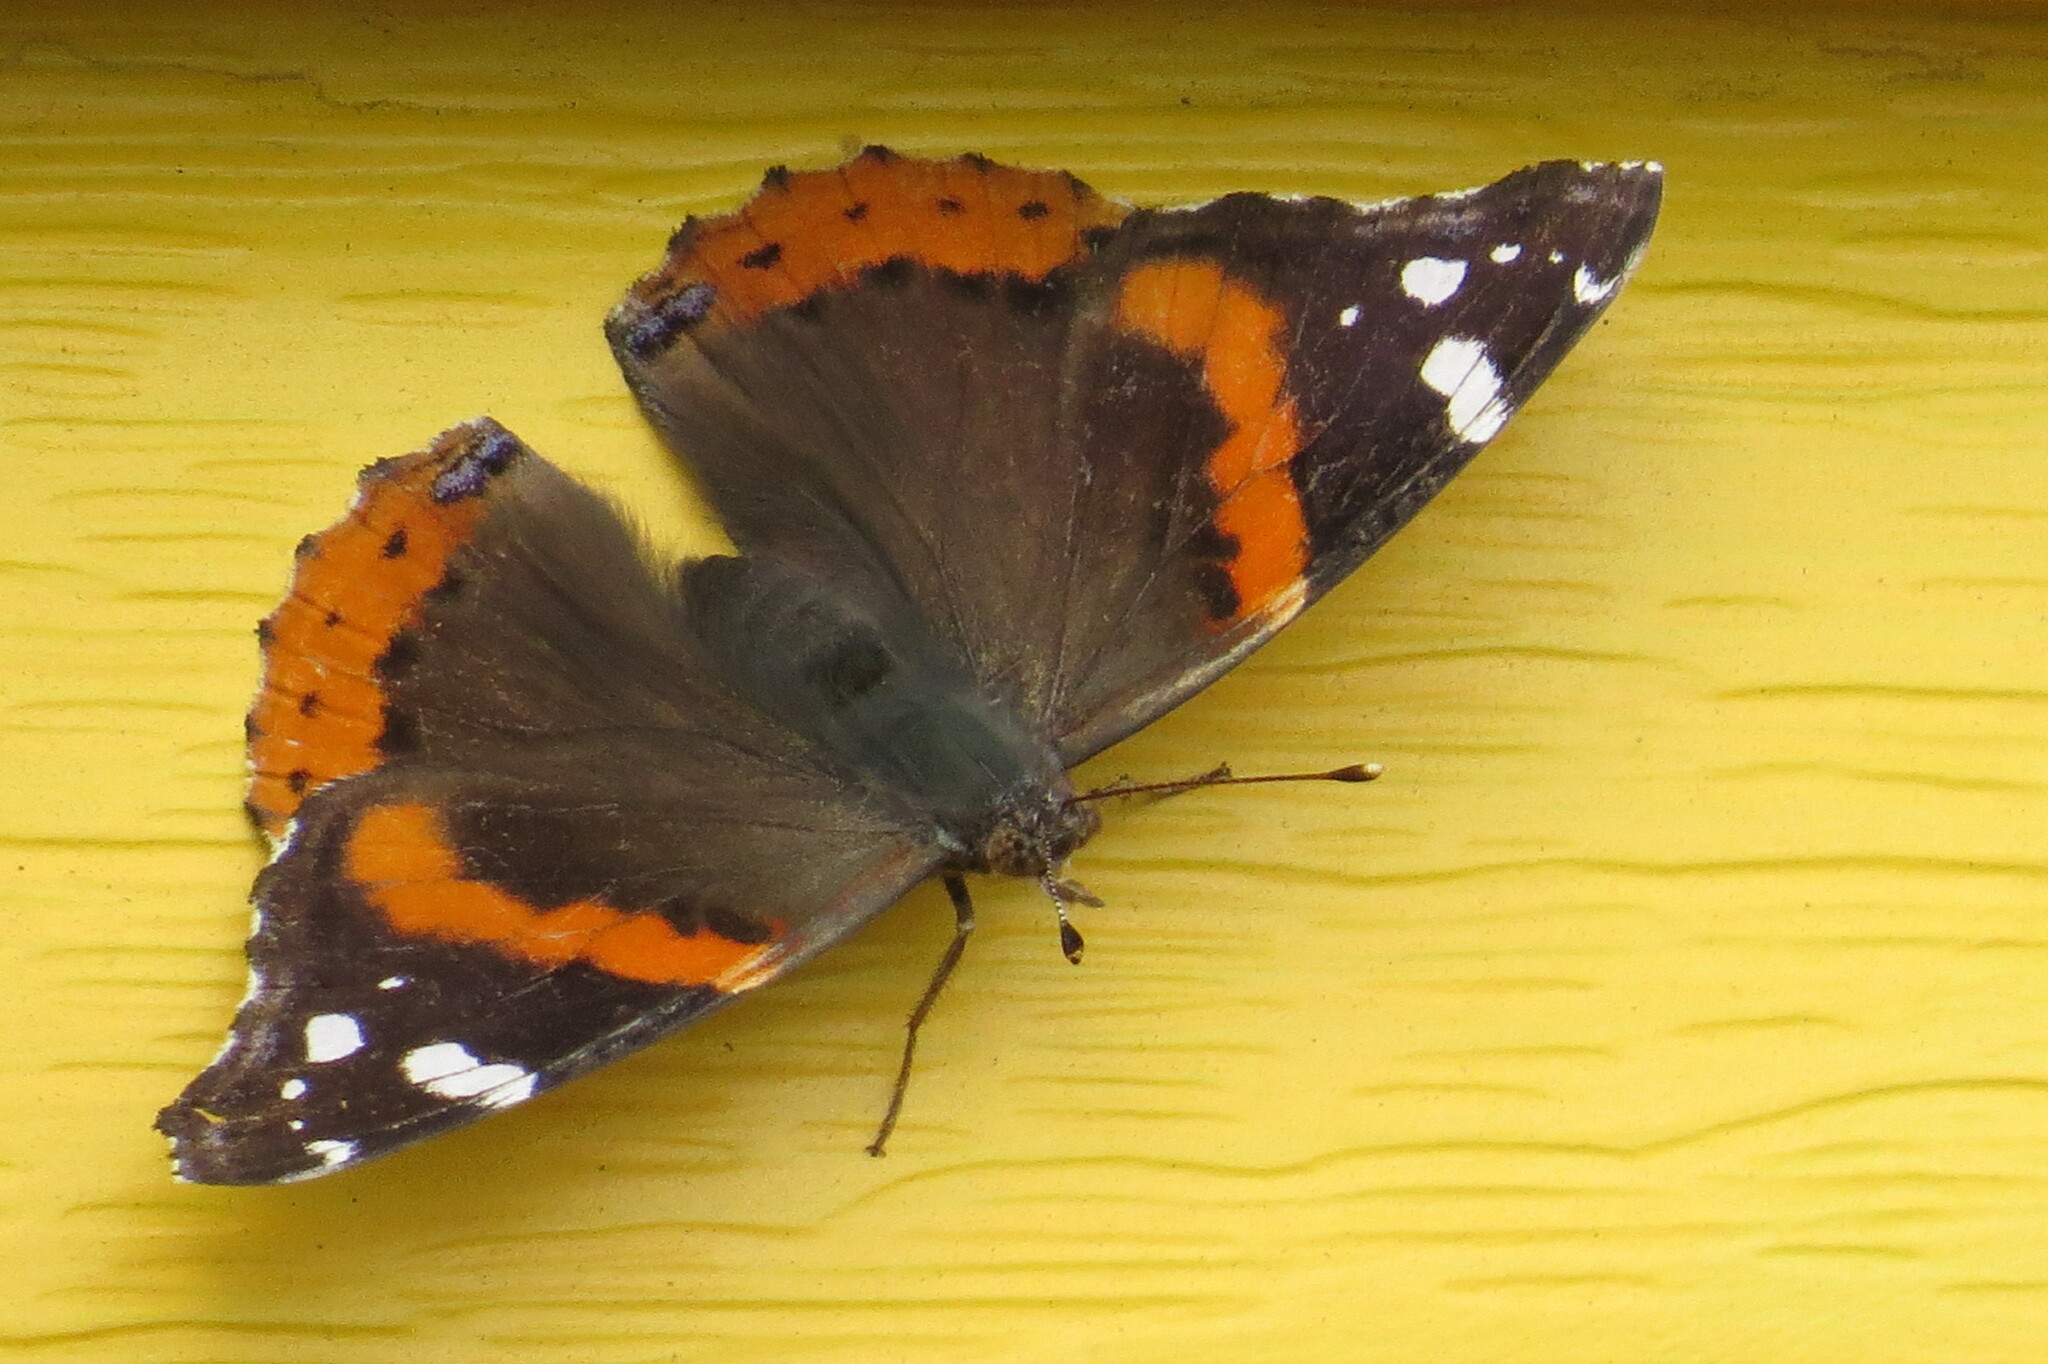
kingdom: Animalia
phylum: Arthropoda
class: Insecta
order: Lepidoptera
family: Nymphalidae
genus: Vanessa
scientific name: Vanessa atalanta
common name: Red admiral
